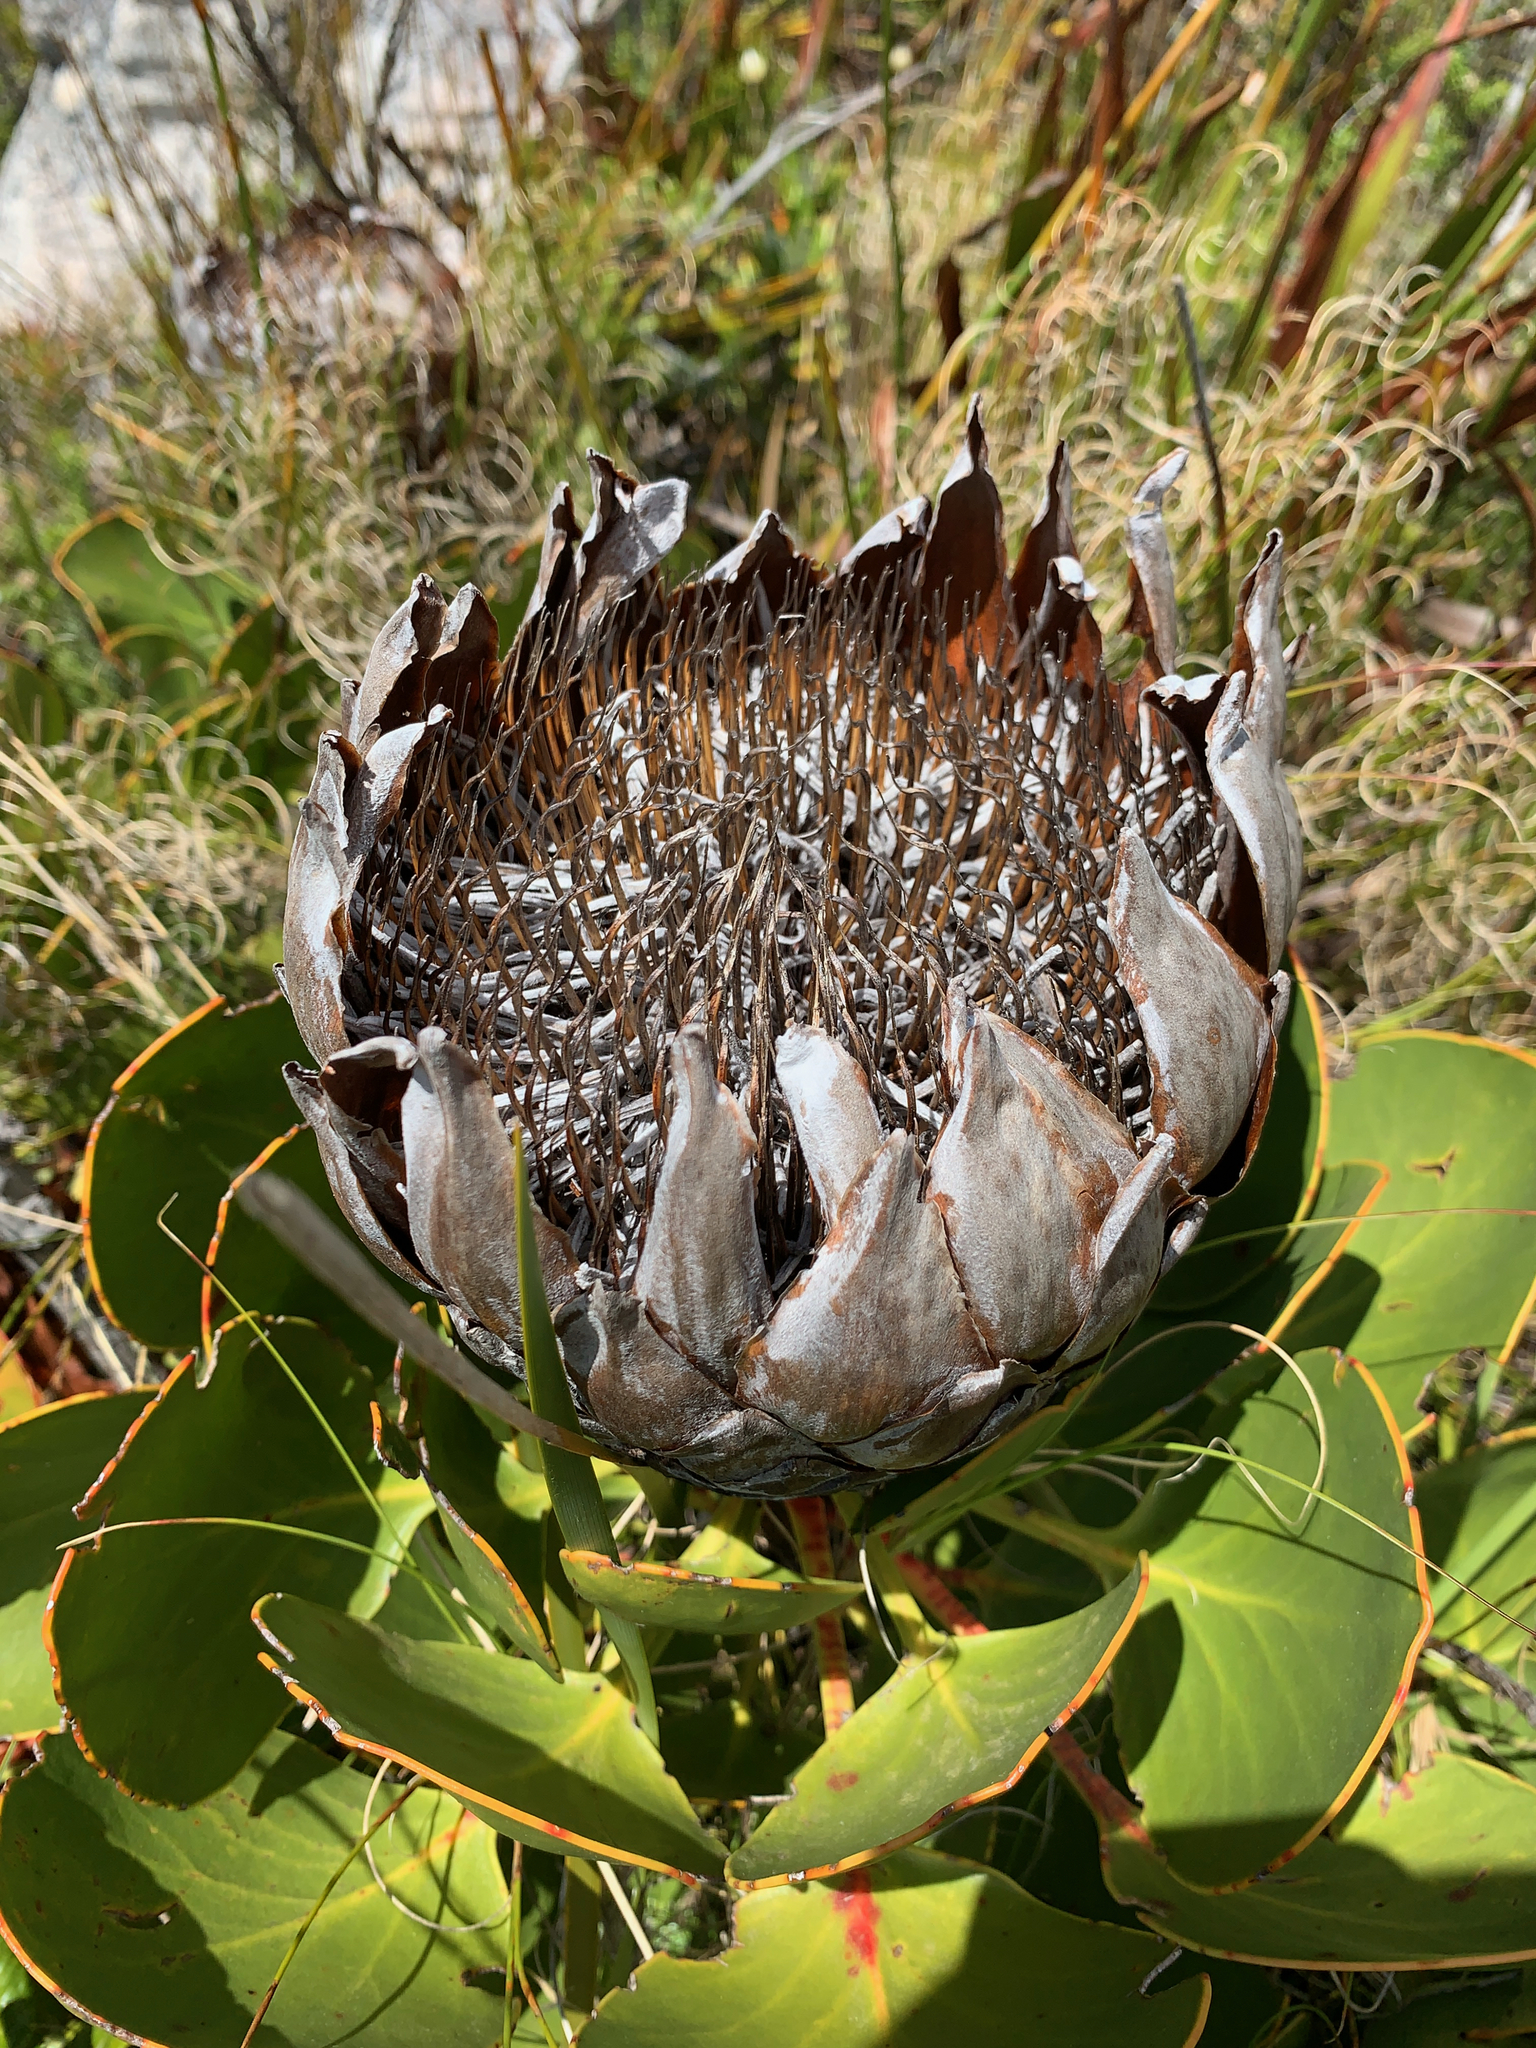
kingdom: Plantae
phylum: Tracheophyta
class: Magnoliopsida
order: Proteales
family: Proteaceae
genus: Protea
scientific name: Protea cynaroides
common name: King protea
